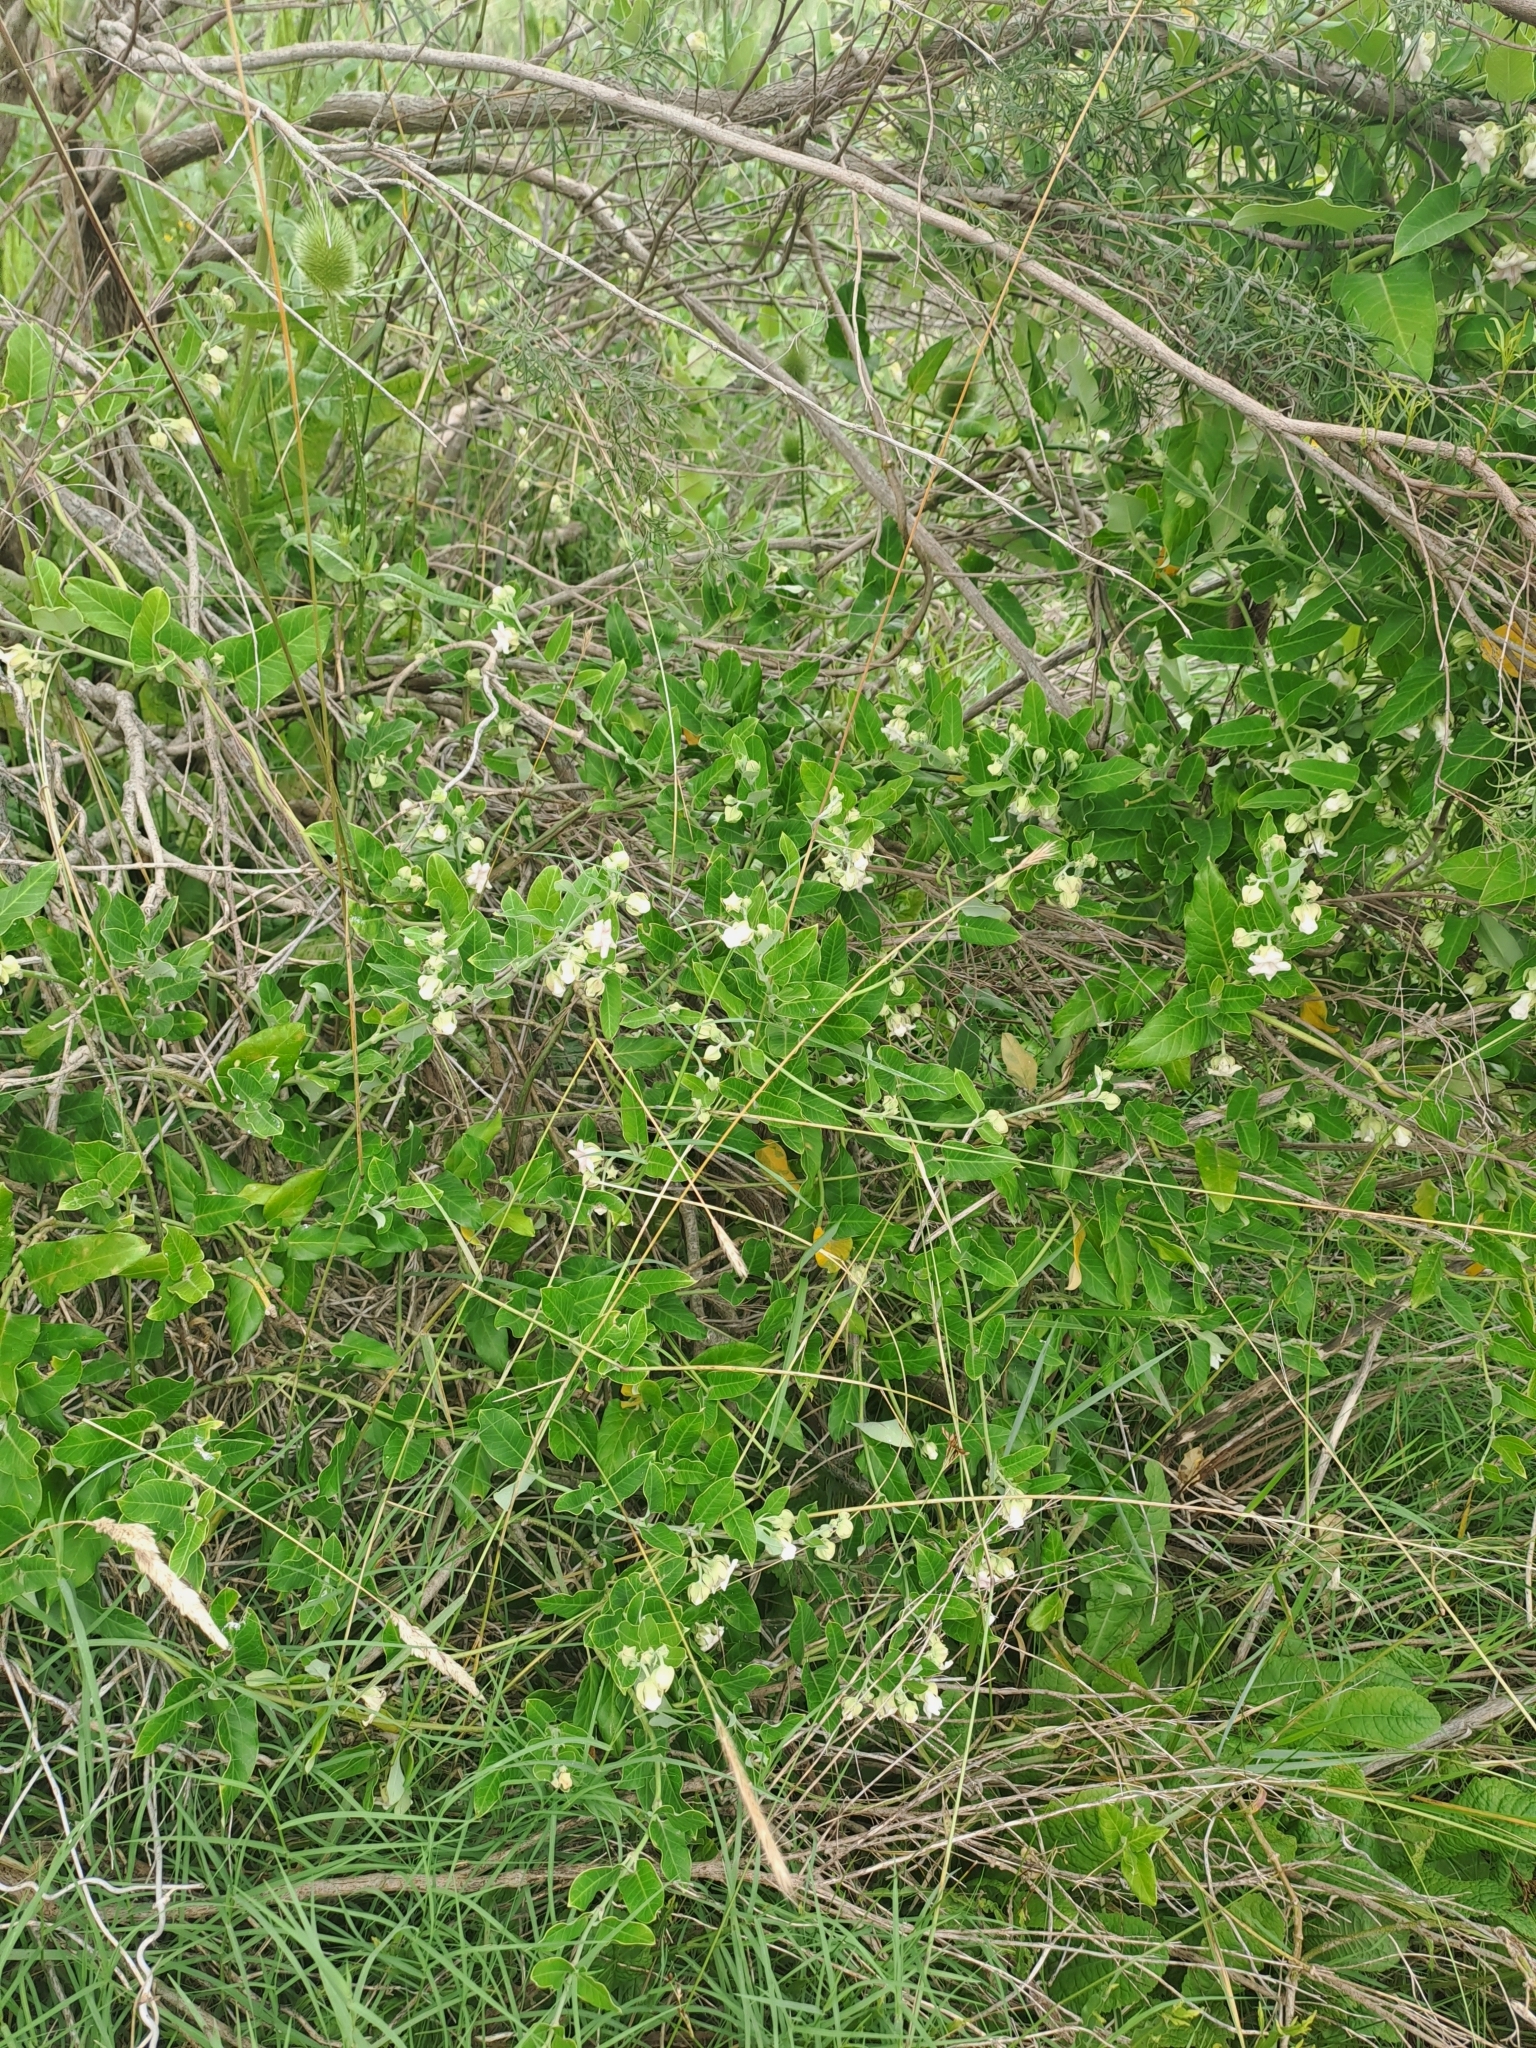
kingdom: Plantae
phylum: Tracheophyta
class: Magnoliopsida
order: Gentianales
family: Apocynaceae
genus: Araujia
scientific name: Araujia sericifera
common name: White bladderflower
